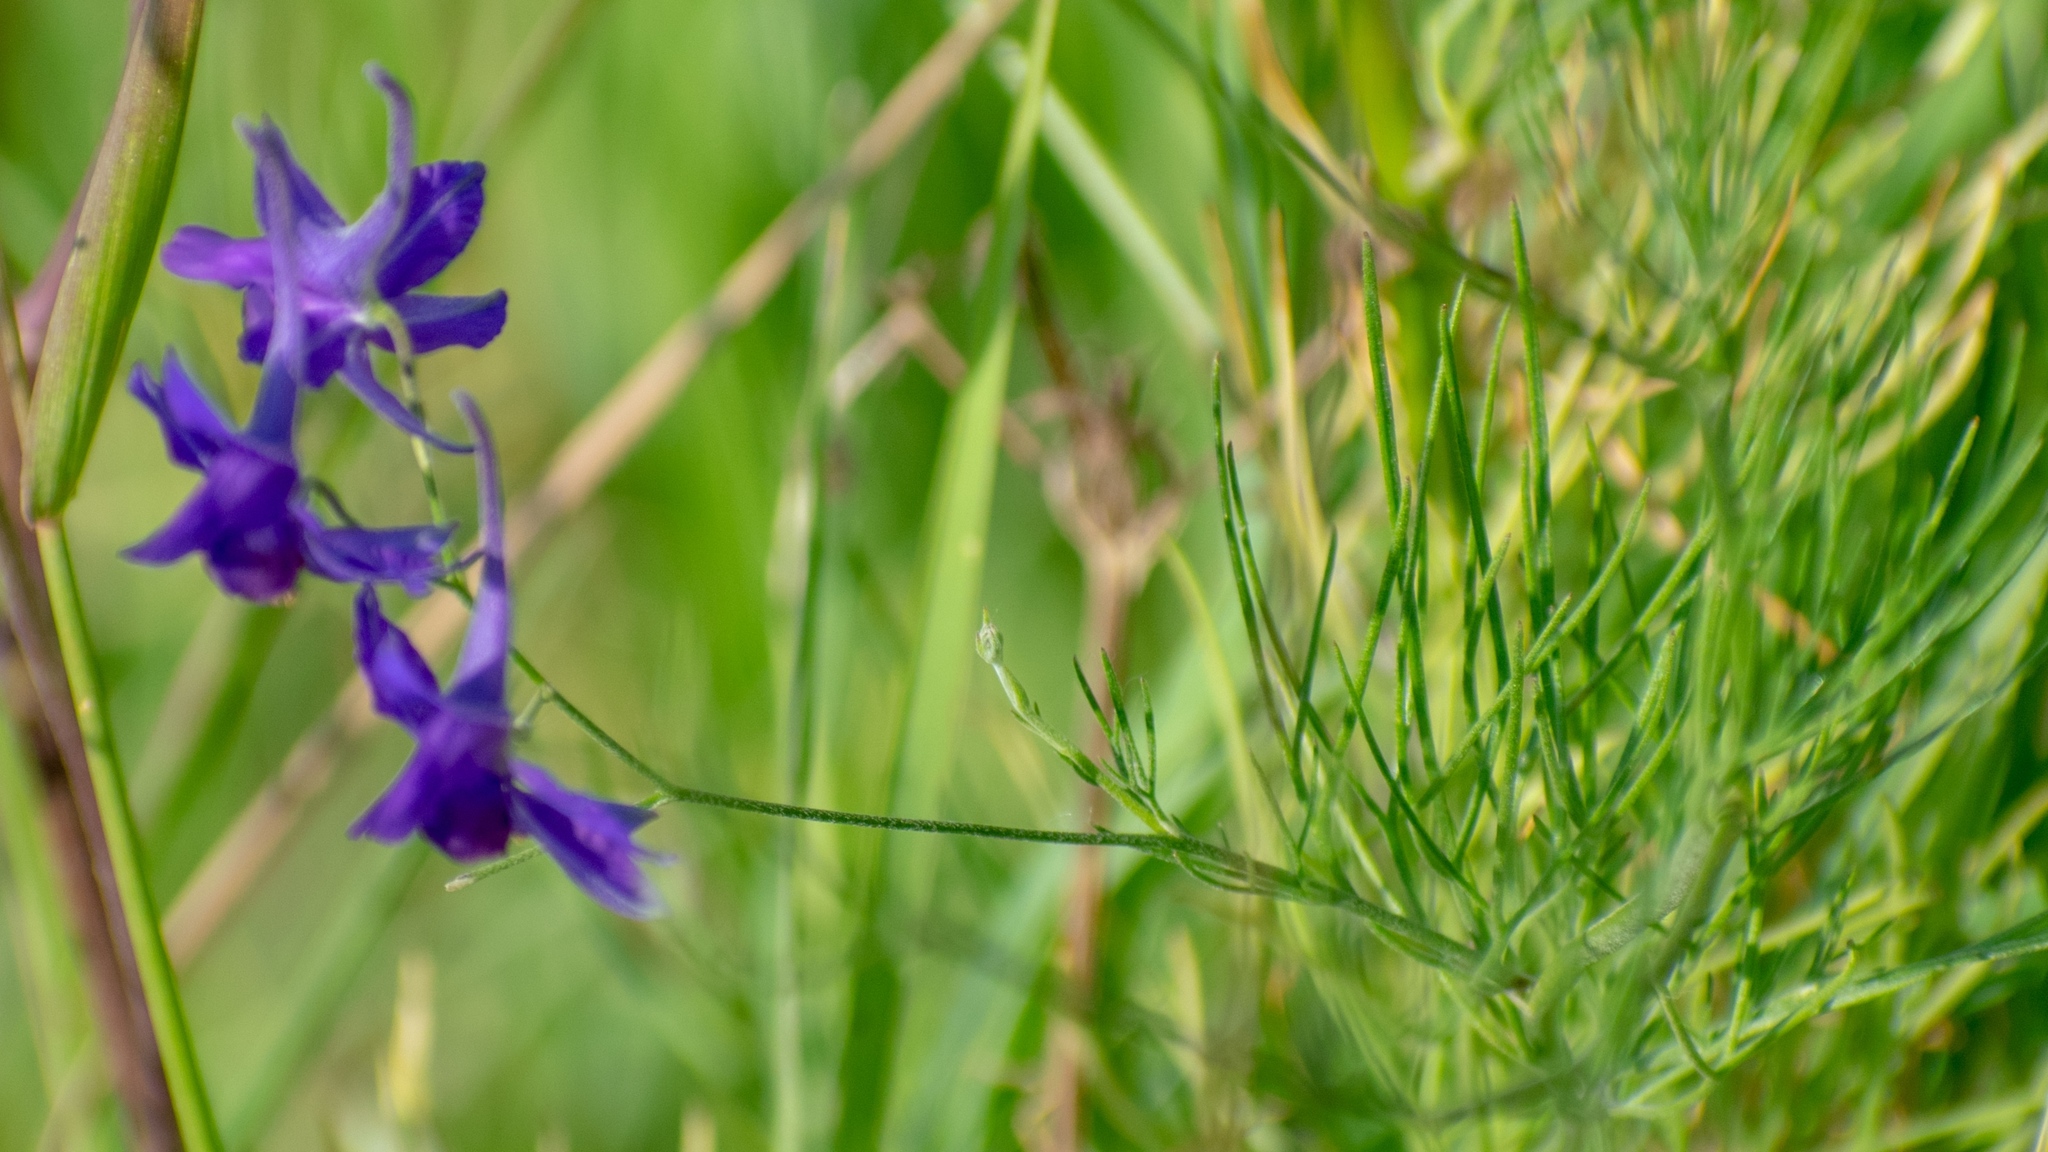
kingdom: Plantae
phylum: Tracheophyta
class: Magnoliopsida
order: Ranunculales
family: Ranunculaceae
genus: Delphinium
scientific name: Delphinium consolida
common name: Branching larkspur
